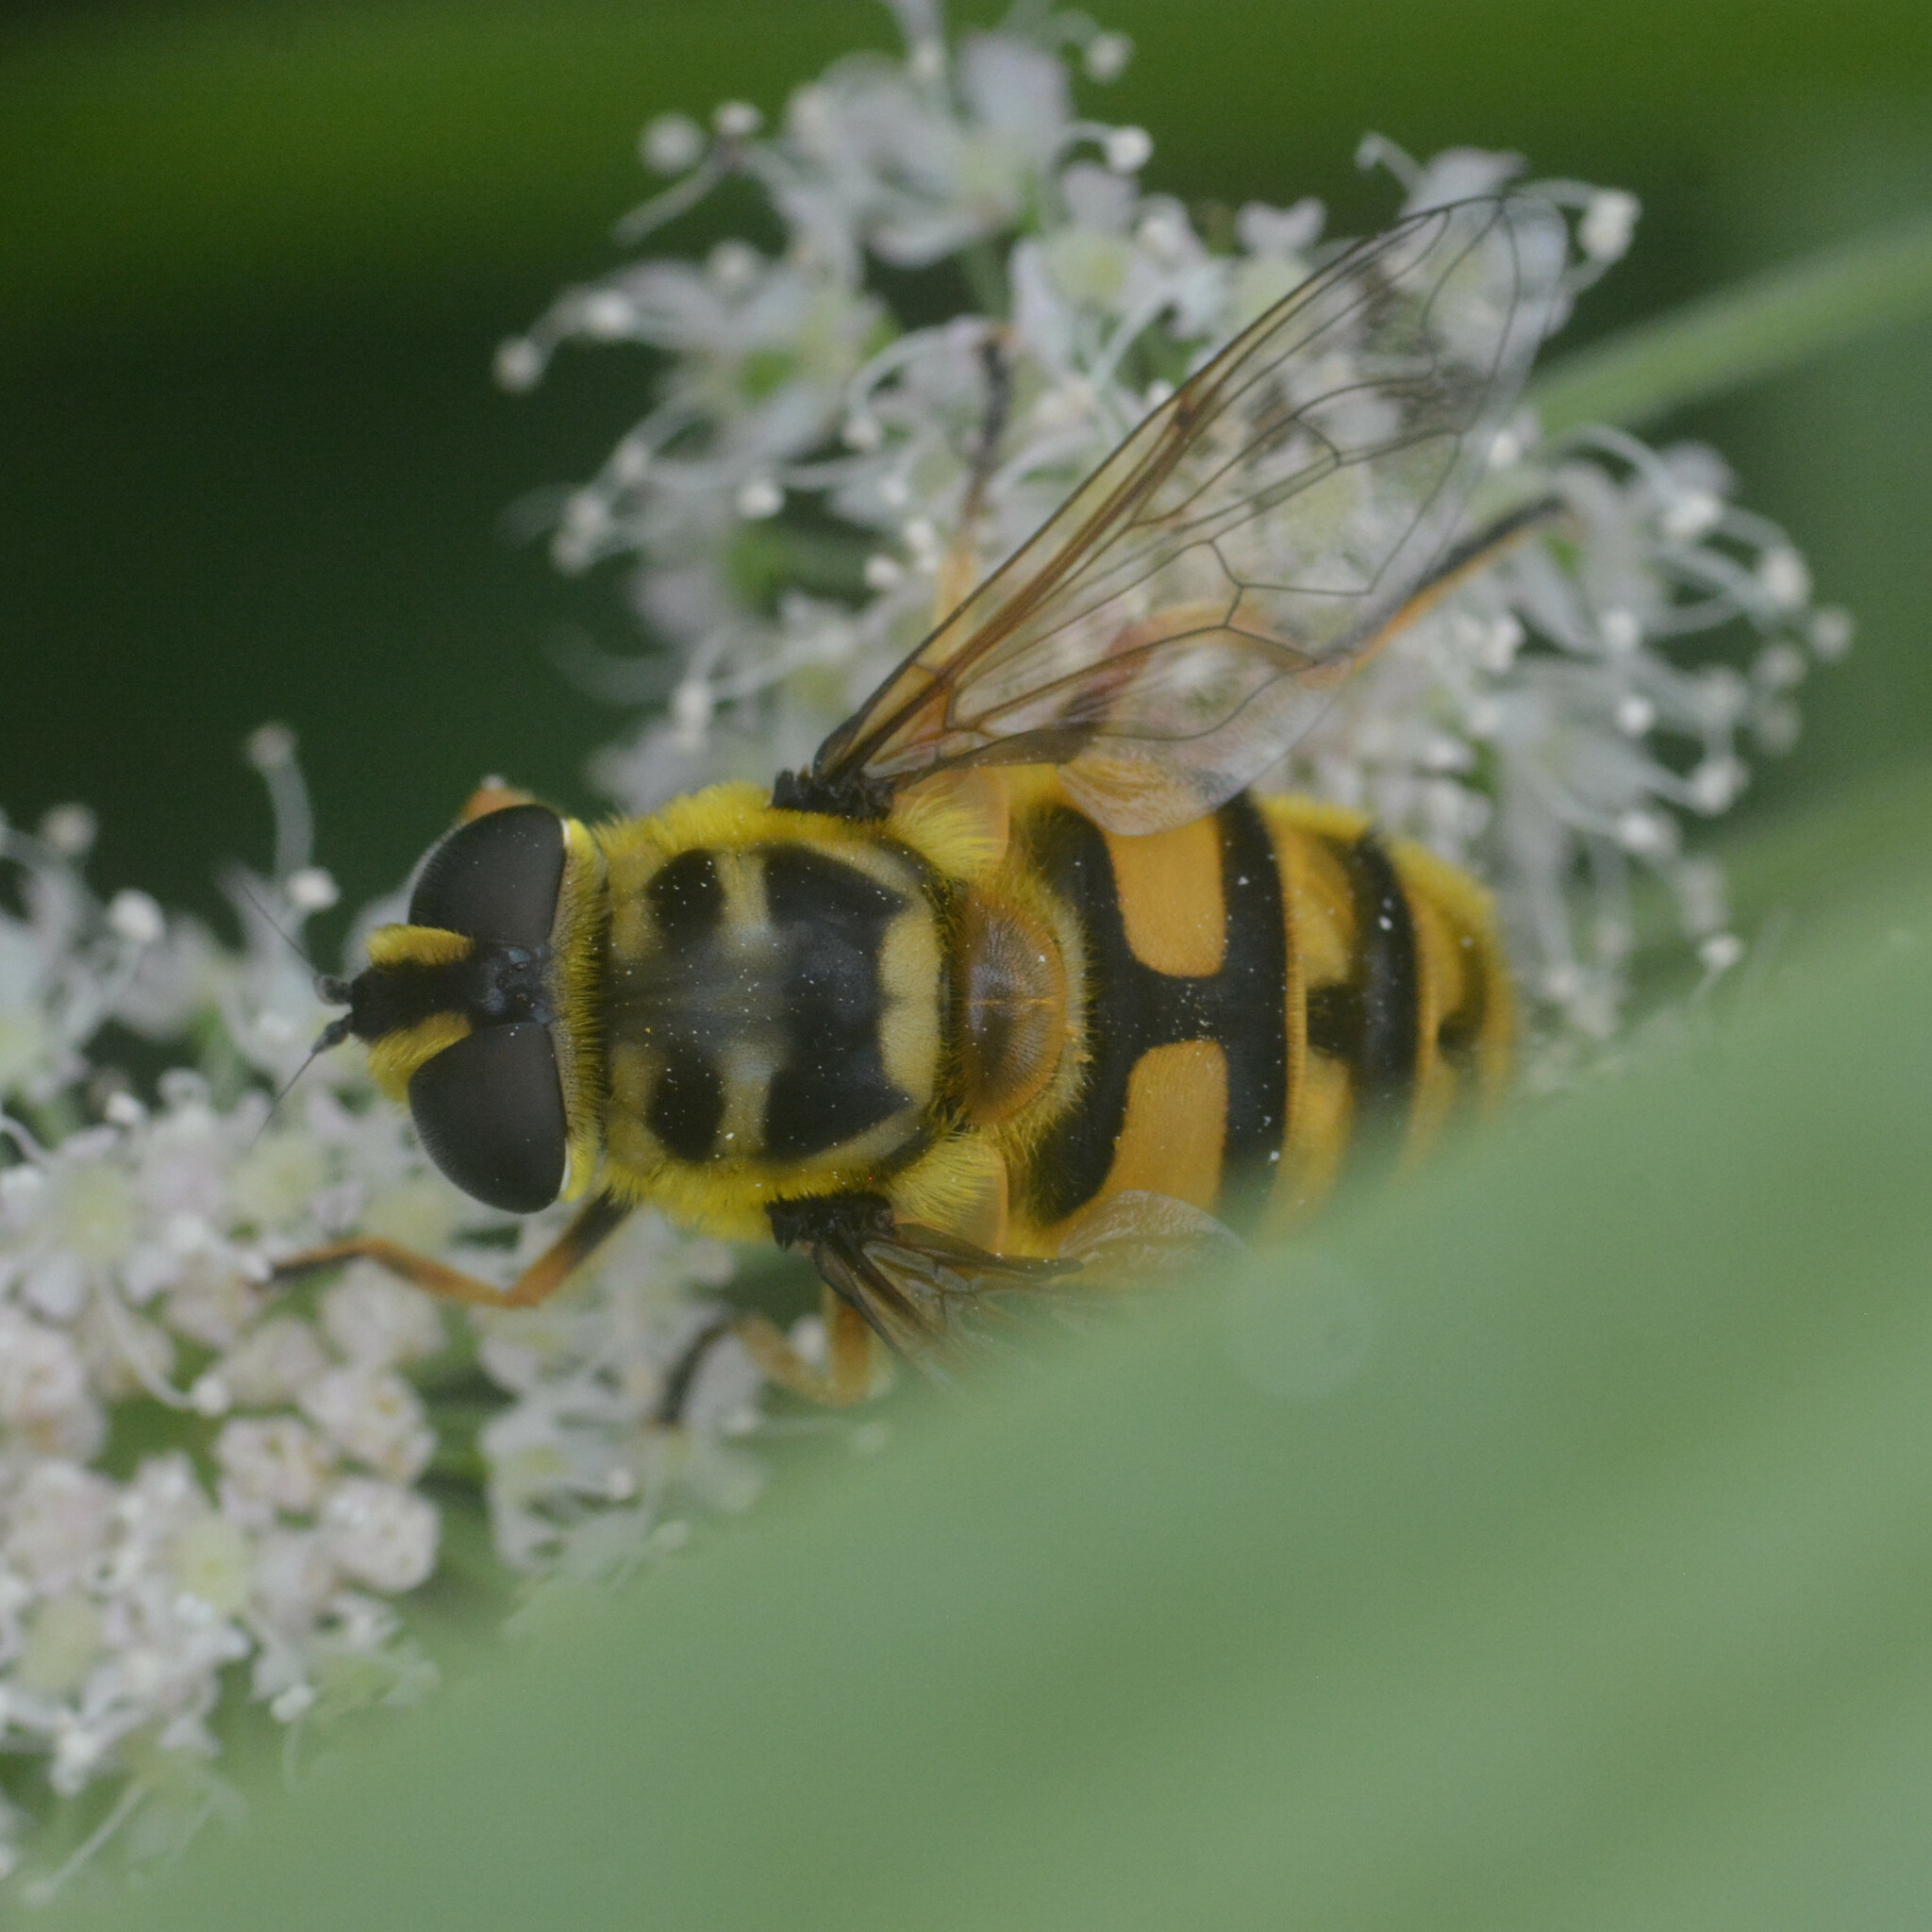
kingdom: Animalia
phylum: Arthropoda
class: Insecta
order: Diptera
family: Syrphidae
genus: Myathropa
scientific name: Myathropa florea
